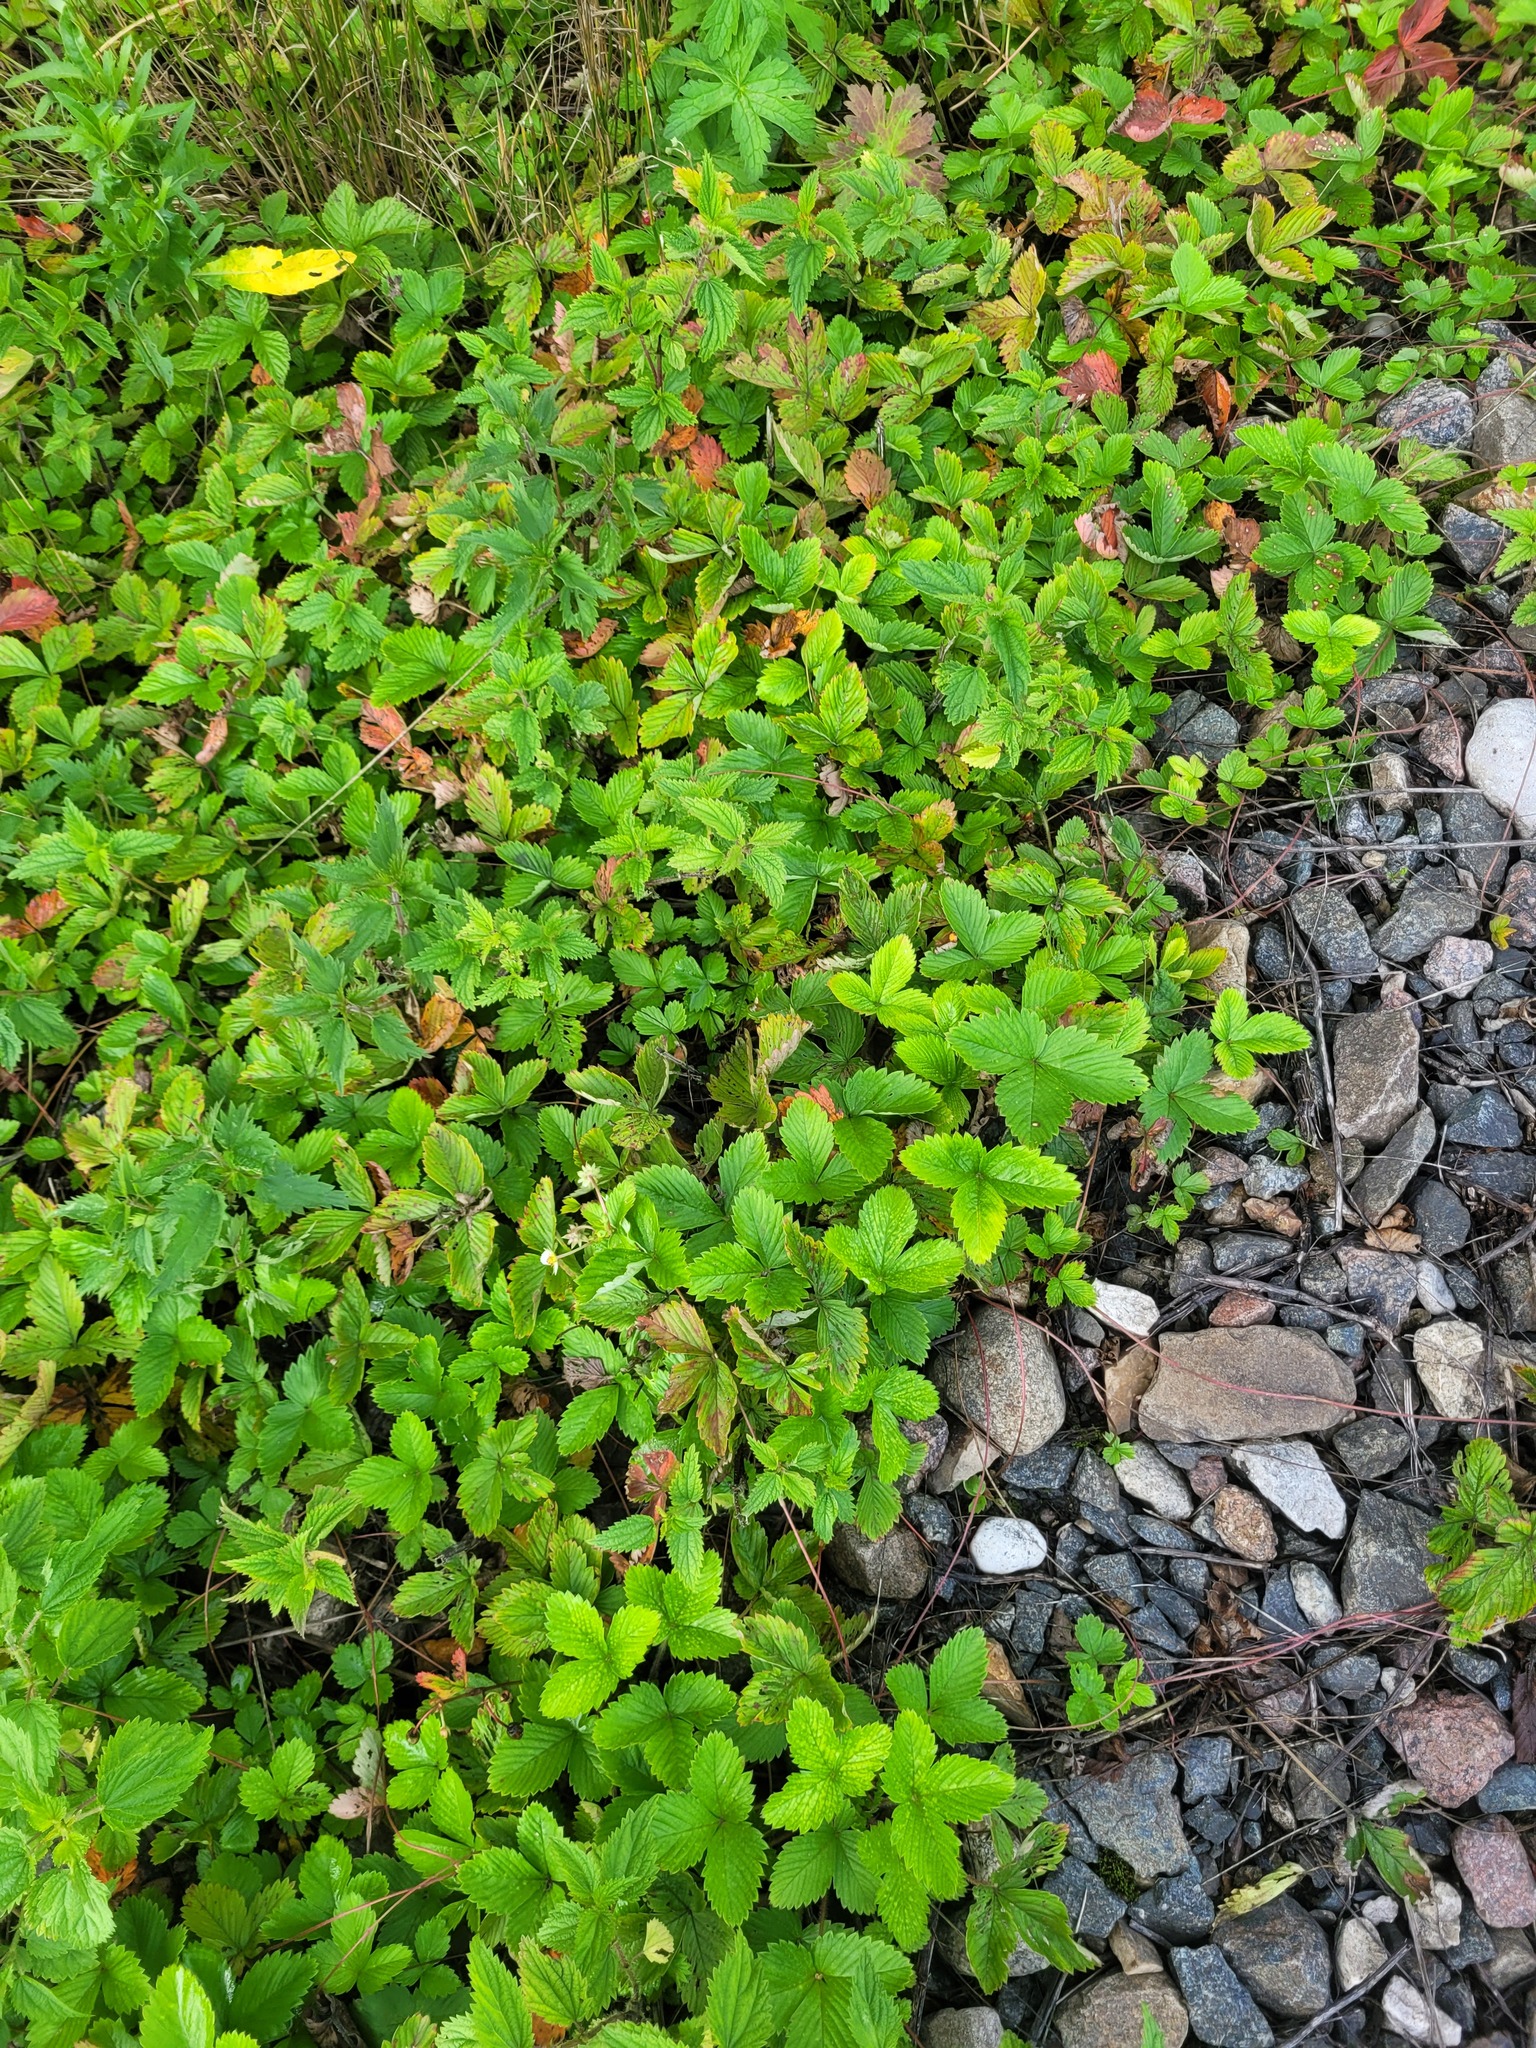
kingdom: Plantae
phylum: Tracheophyta
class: Magnoliopsida
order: Rosales
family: Rosaceae
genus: Fragaria
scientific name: Fragaria vesca
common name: Wild strawberry
